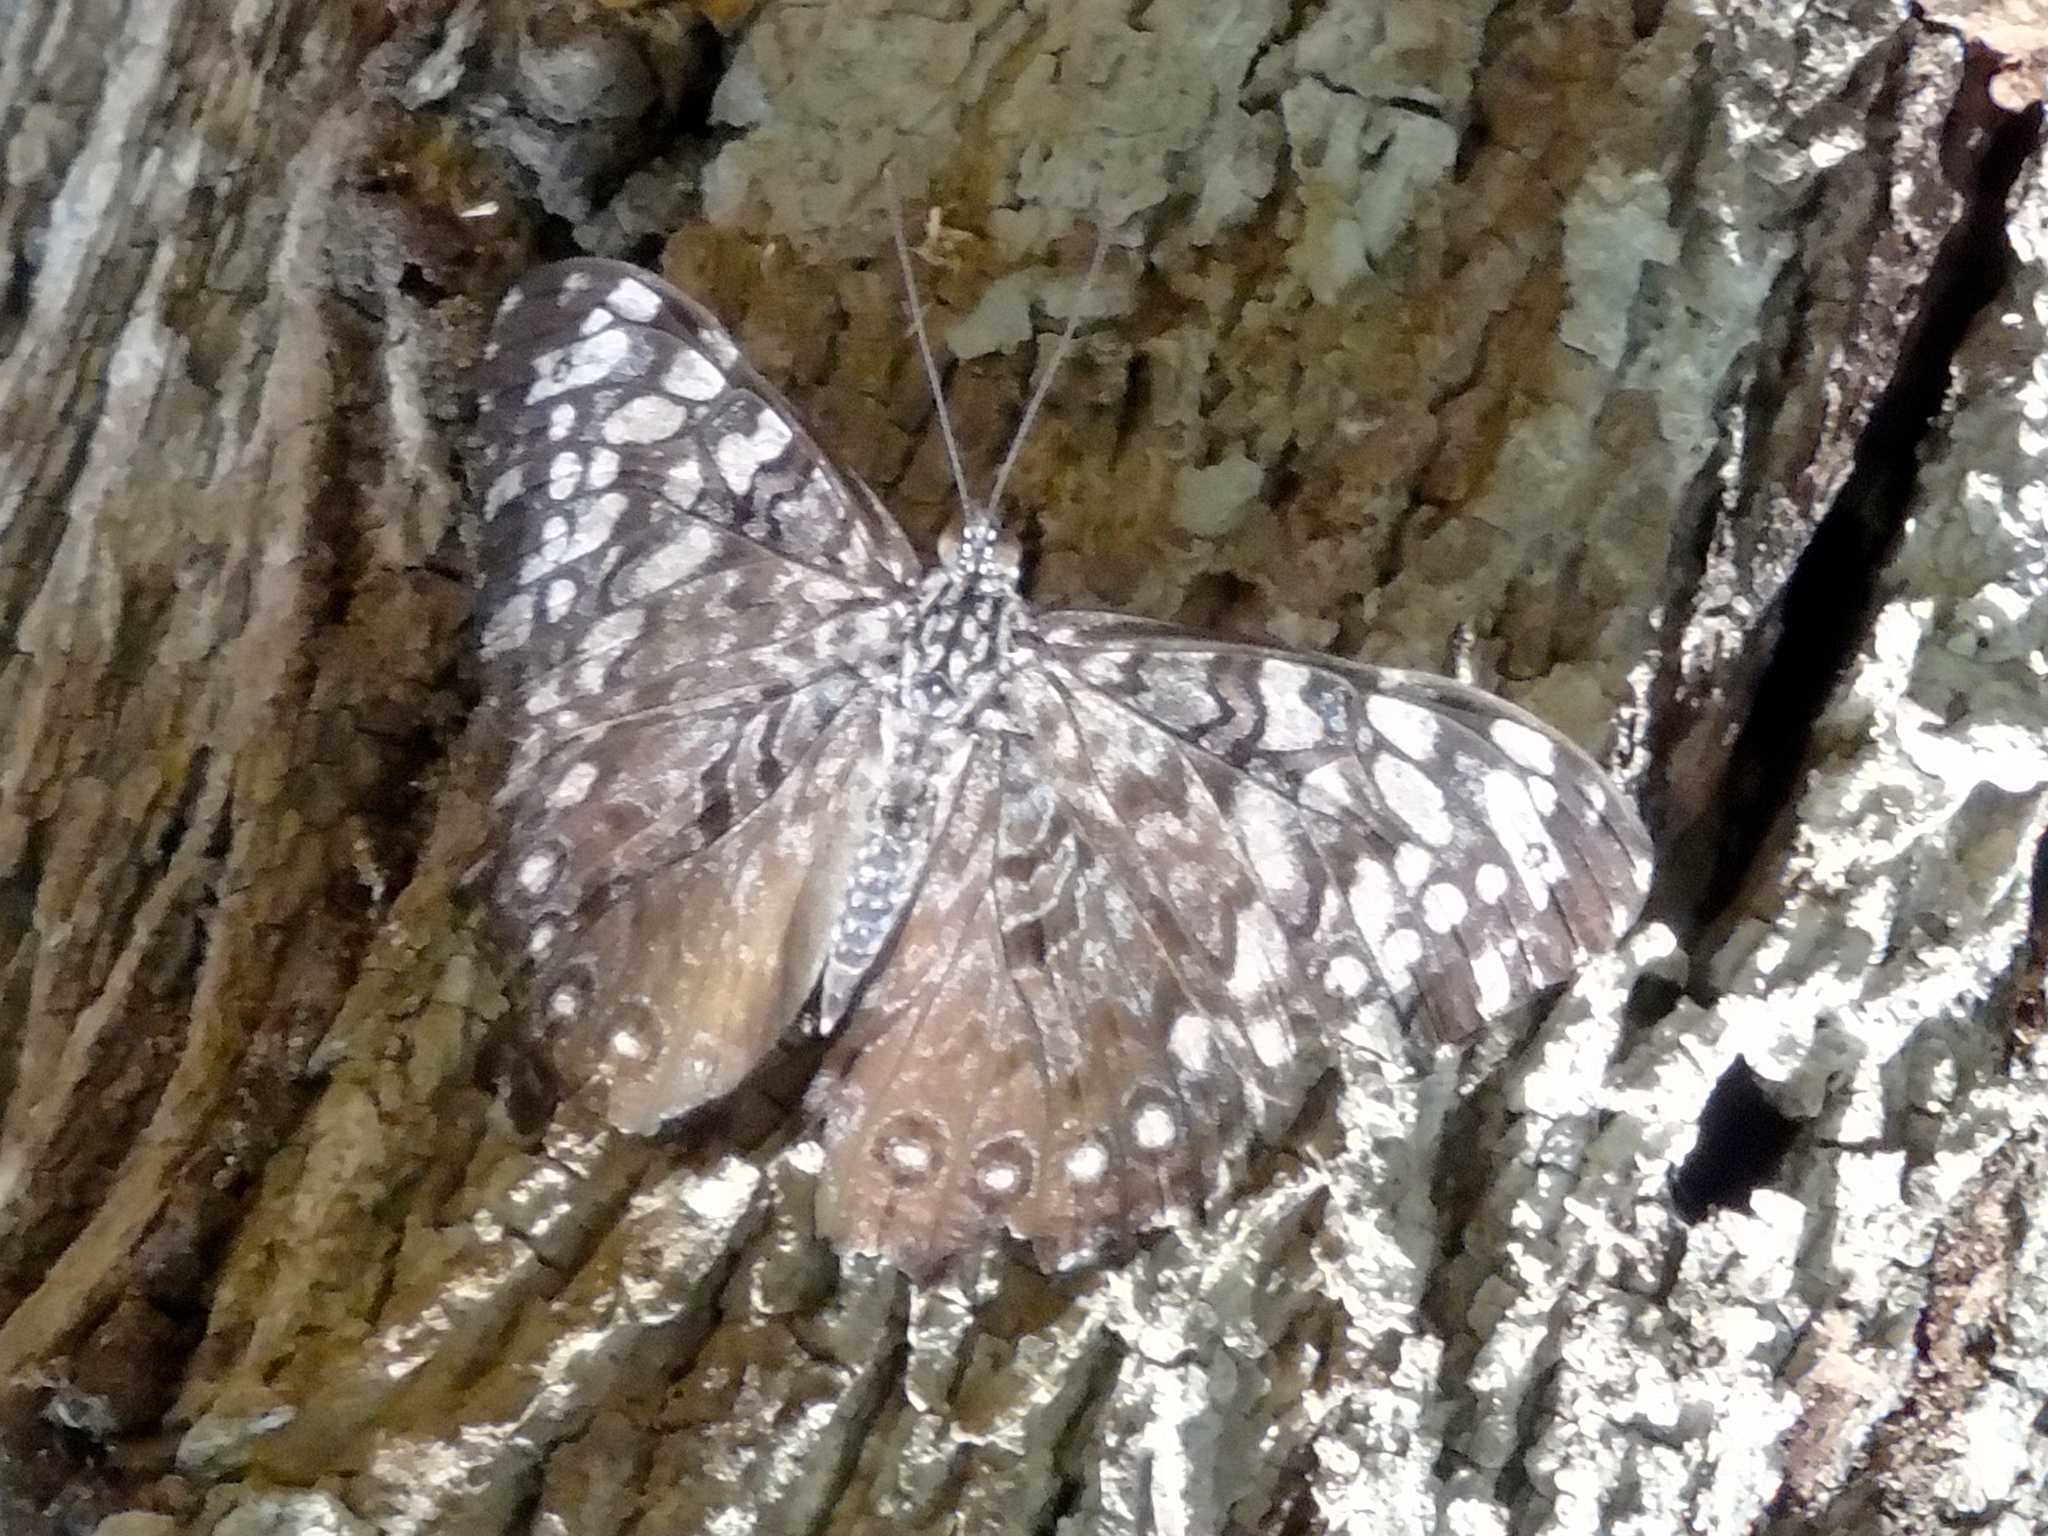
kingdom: Animalia
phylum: Arthropoda
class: Insecta
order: Lepidoptera
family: Nymphalidae
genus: Hamadryas
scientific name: Hamadryas guatemalena
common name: Guatemalan cracker
